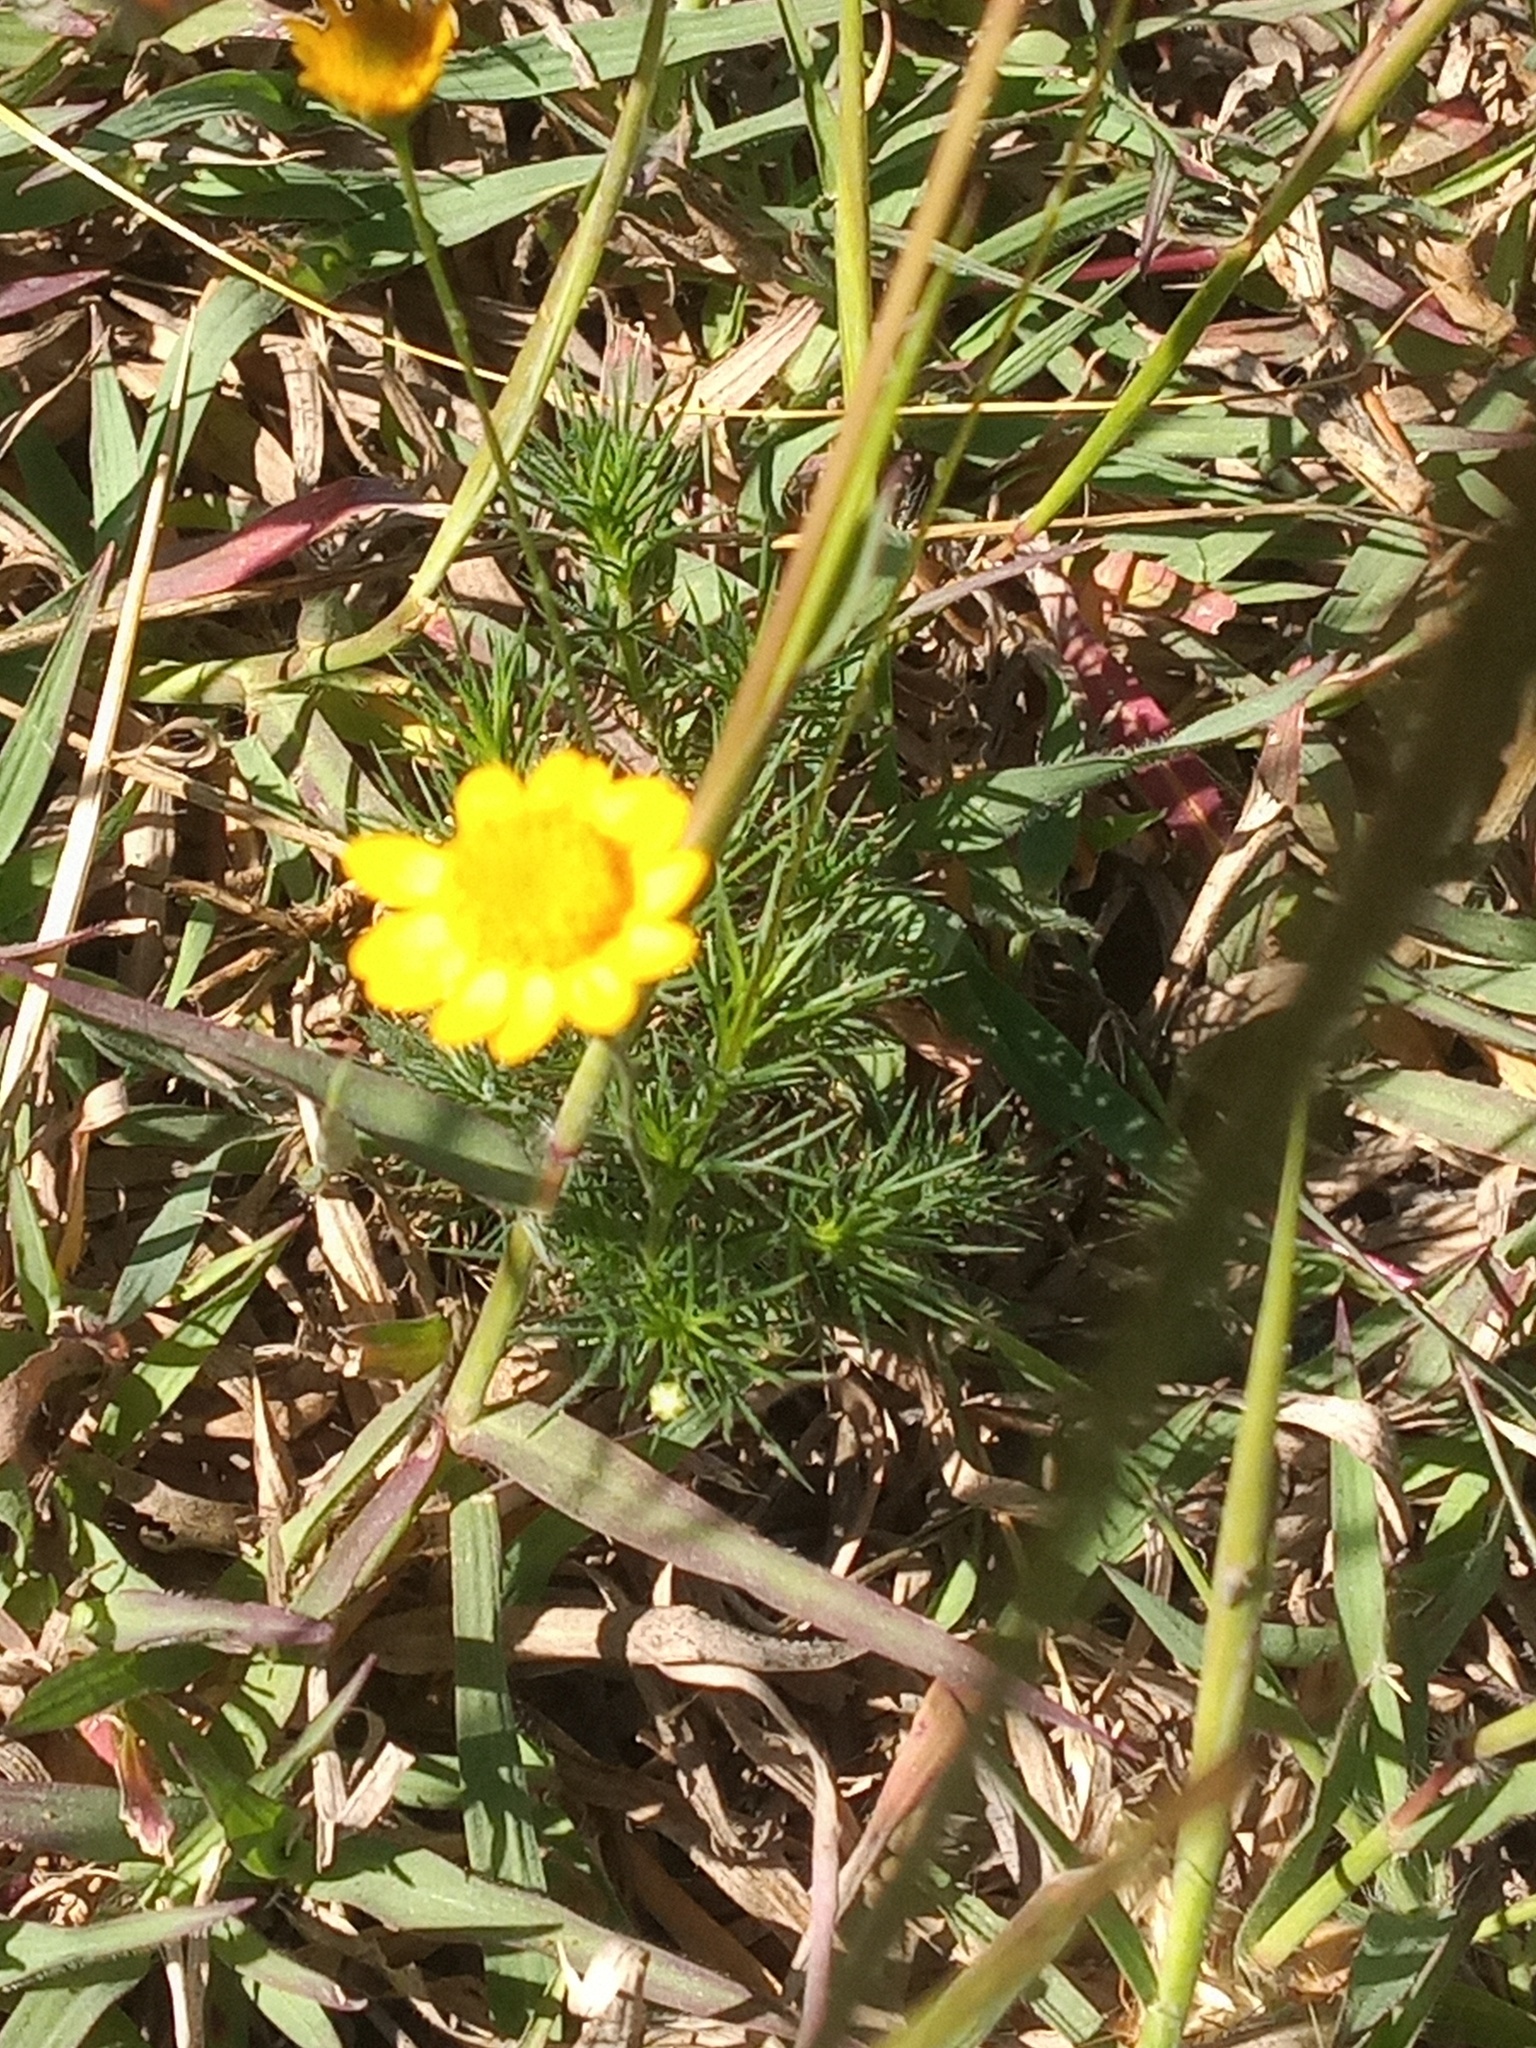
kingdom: Plantae
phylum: Tracheophyta
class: Magnoliopsida
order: Asterales
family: Asteraceae
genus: Thymophylla
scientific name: Thymophylla pentachaeta
